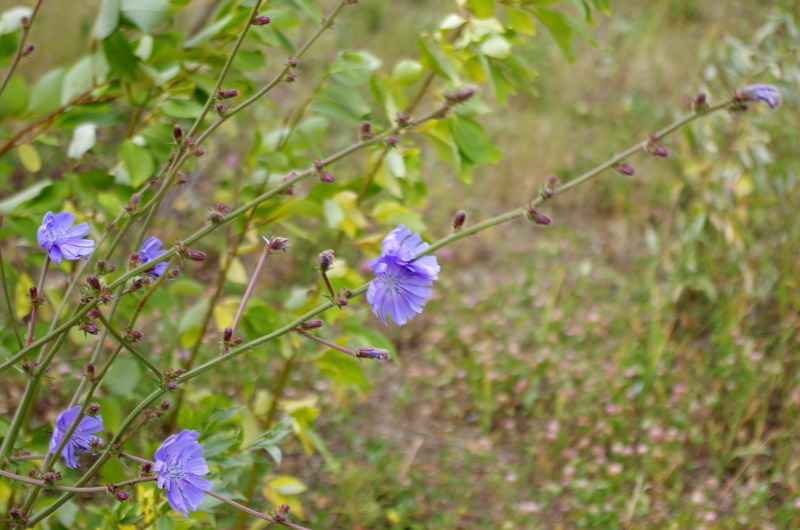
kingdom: Plantae
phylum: Tracheophyta
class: Magnoliopsida
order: Asterales
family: Asteraceae
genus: Cichorium
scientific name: Cichorium intybus
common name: Chicory
